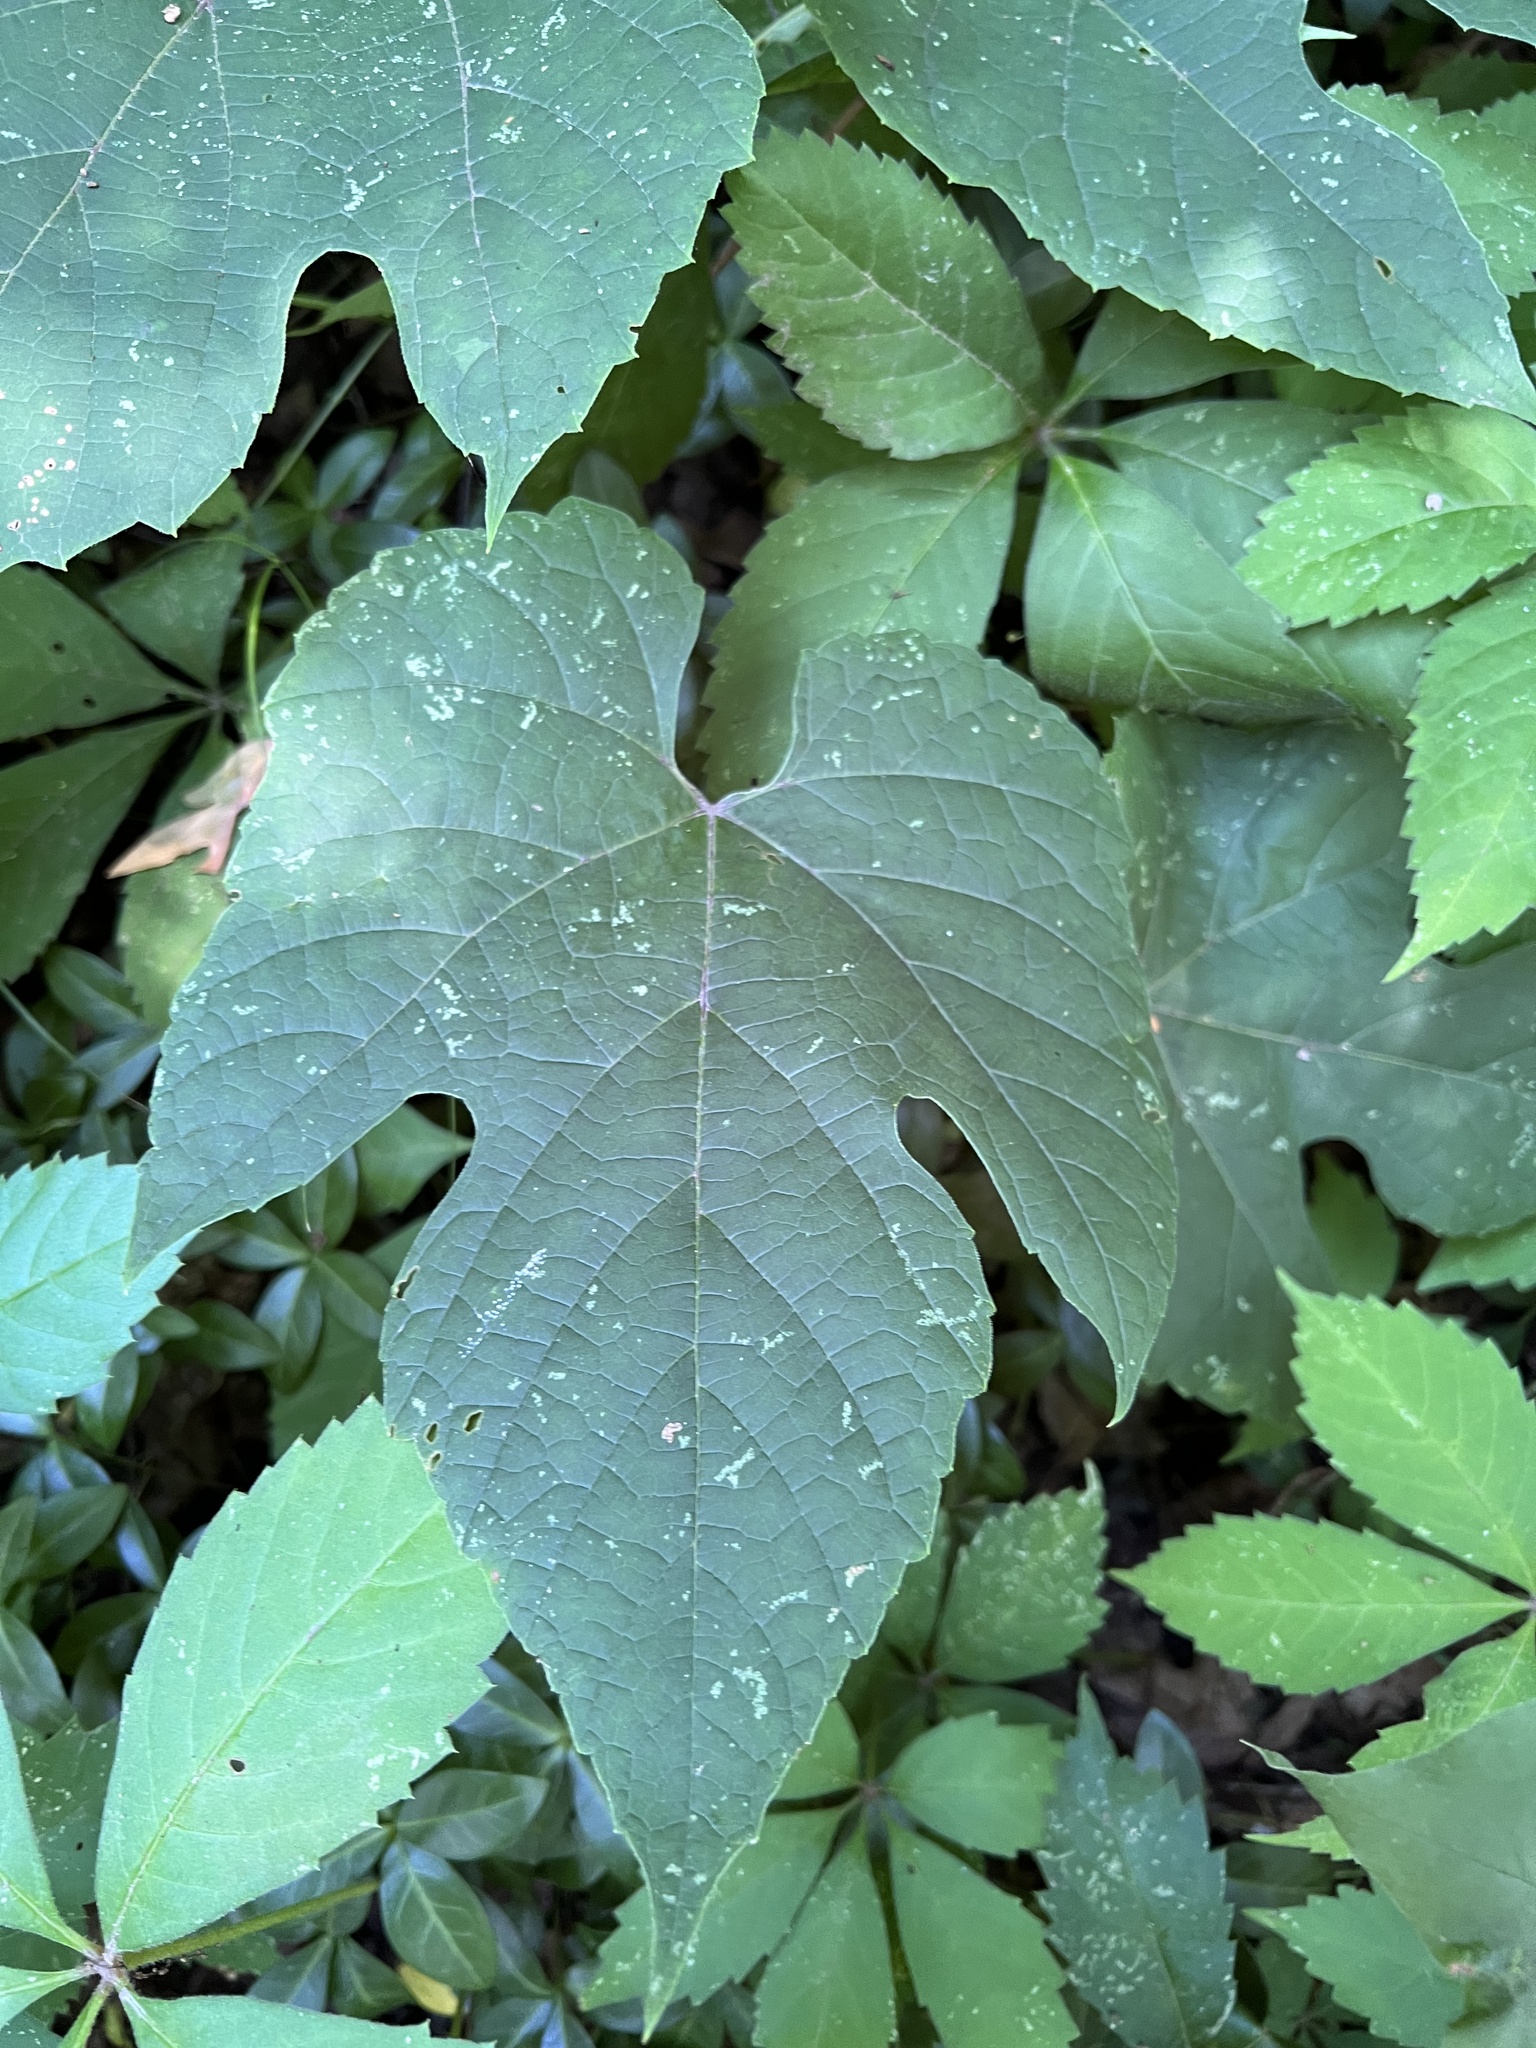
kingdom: Plantae
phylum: Tracheophyta
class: Magnoliopsida
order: Vitales
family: Vitaceae
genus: Vitis
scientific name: Vitis aestivalis
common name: Pigeon grape
